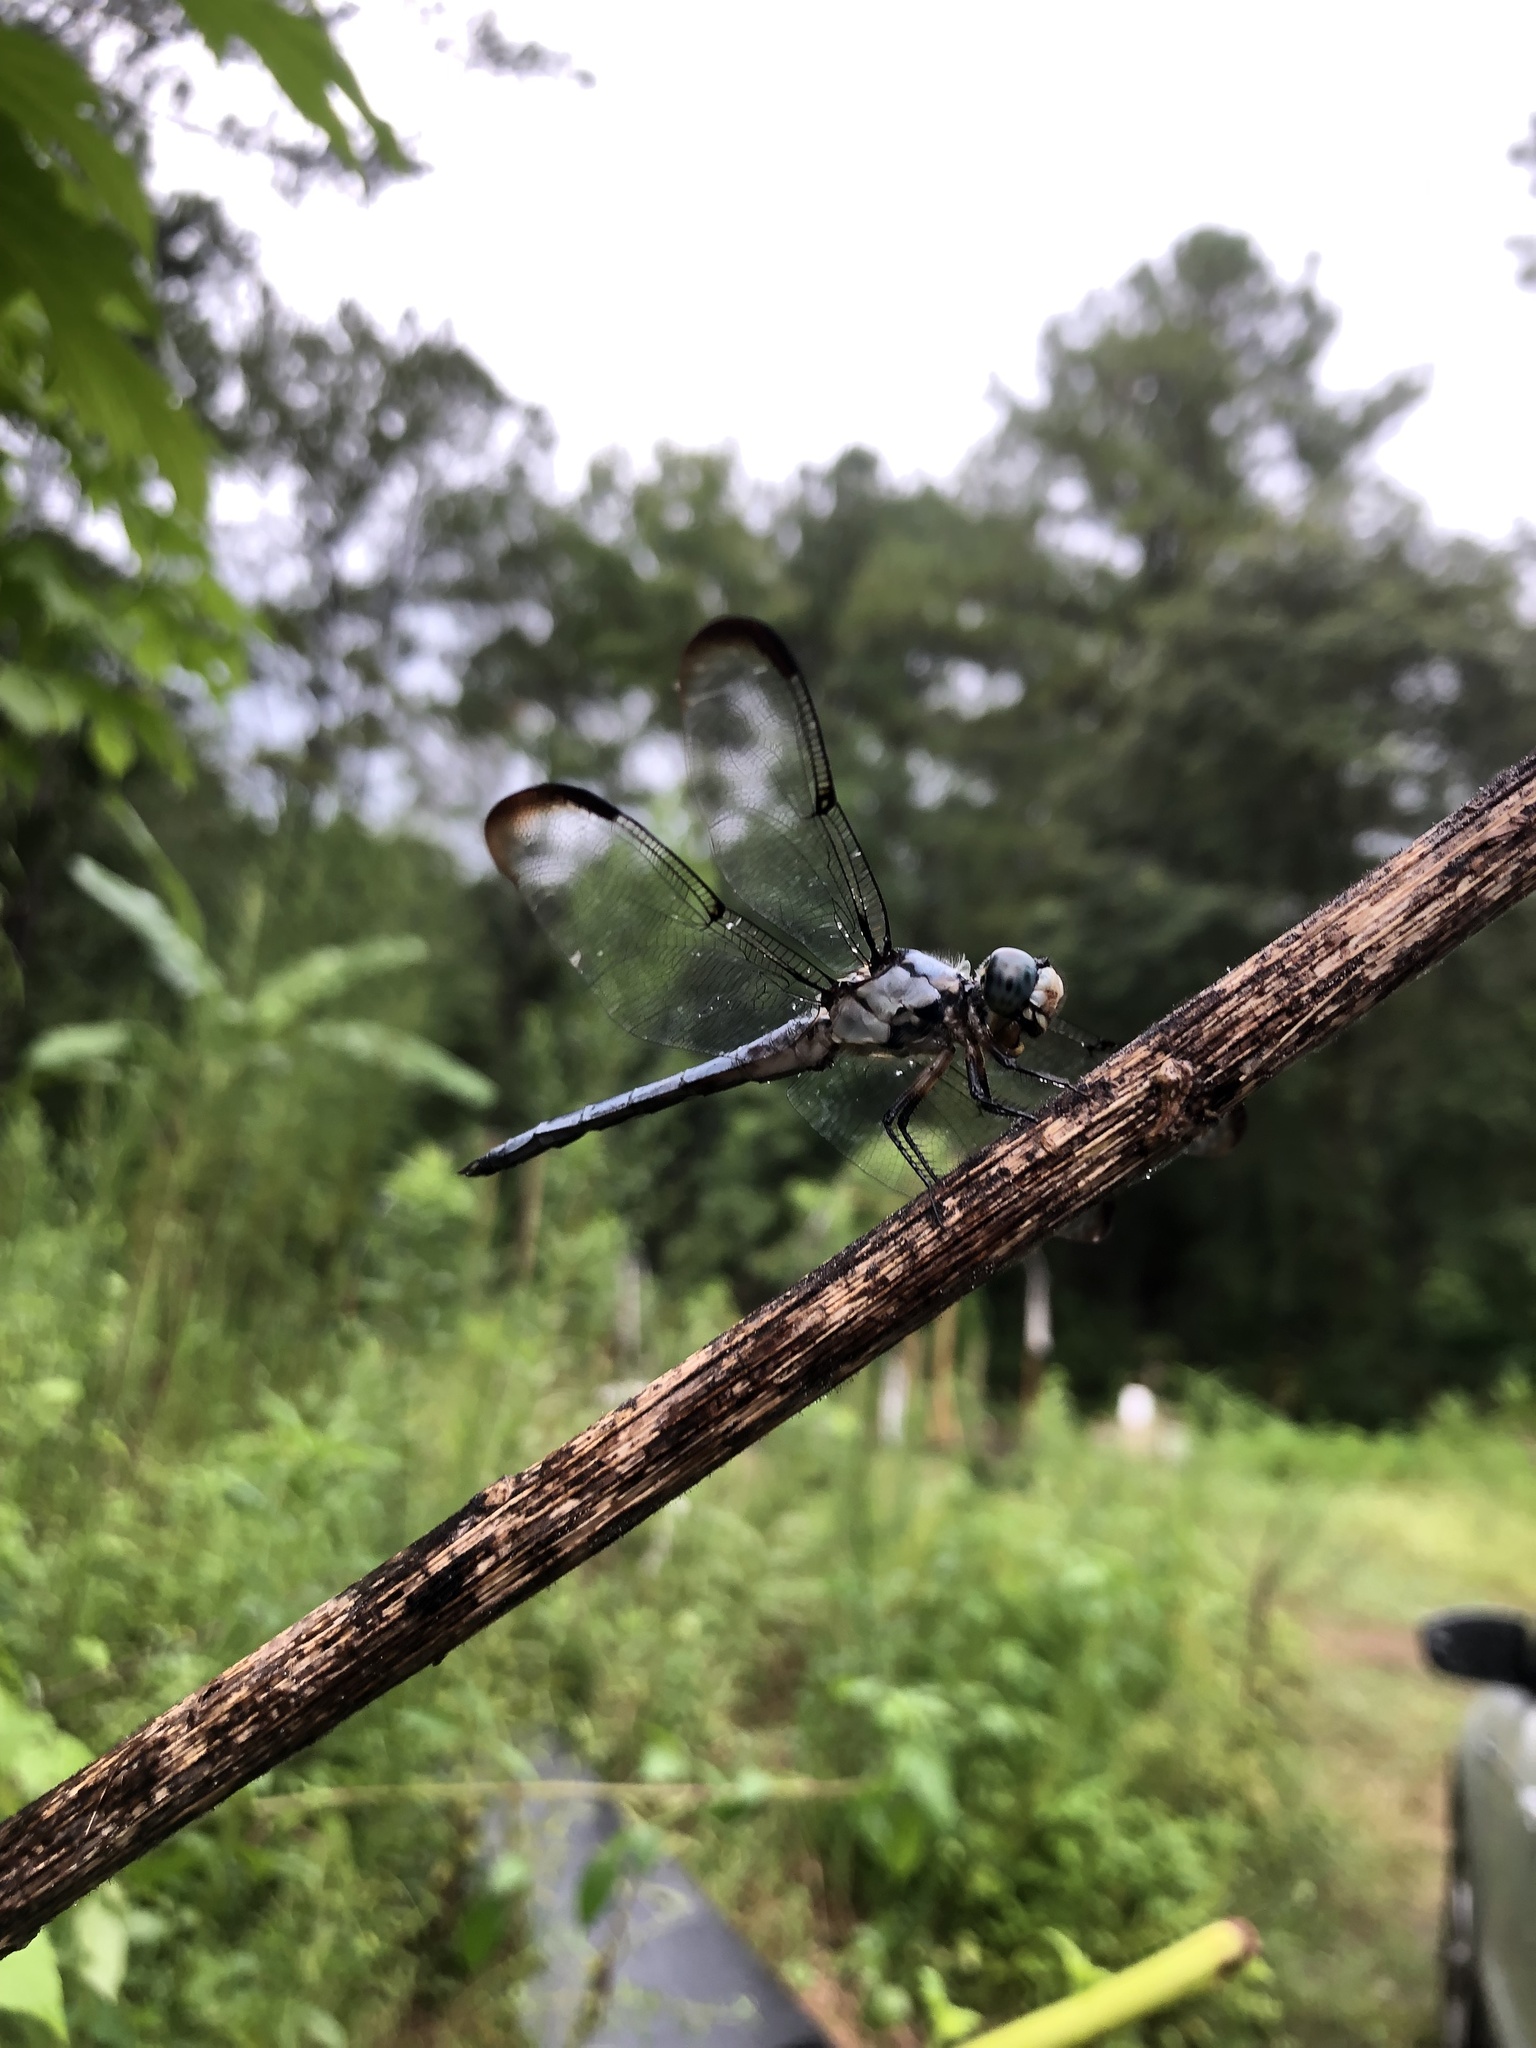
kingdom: Animalia
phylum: Arthropoda
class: Insecta
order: Odonata
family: Libellulidae
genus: Libellula
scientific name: Libellula vibrans
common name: Great blue skimmer
